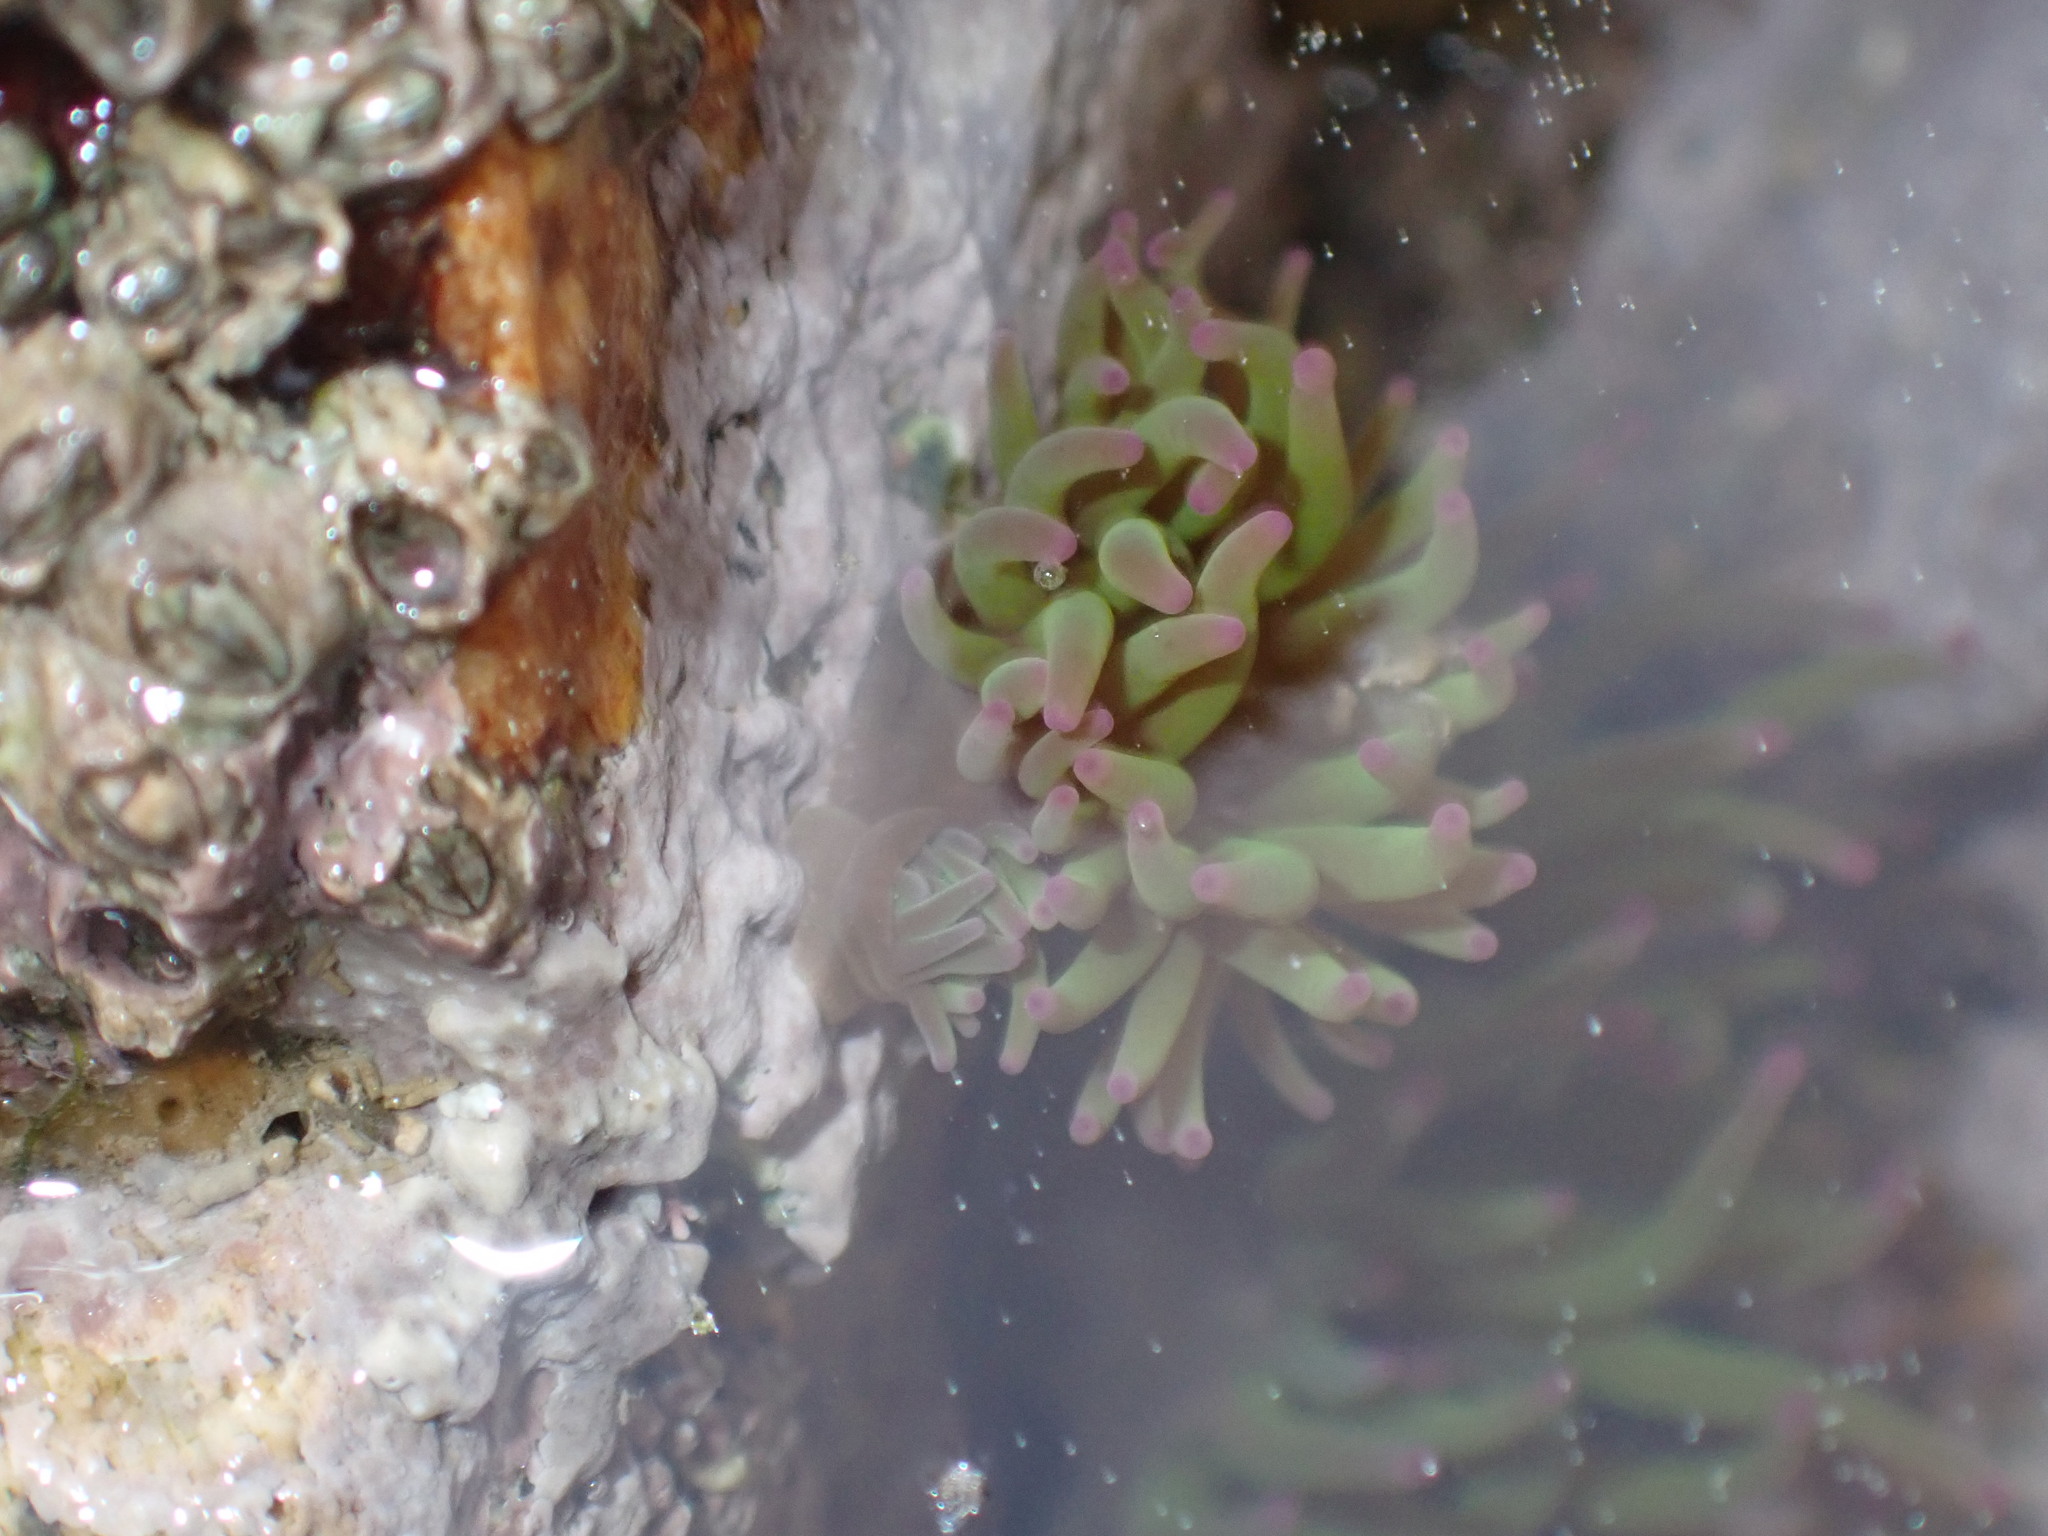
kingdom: Animalia
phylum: Cnidaria
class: Anthozoa
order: Actiniaria
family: Actiniidae
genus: Anemonia
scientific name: Anemonia viridis
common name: Snakelocks anemone
